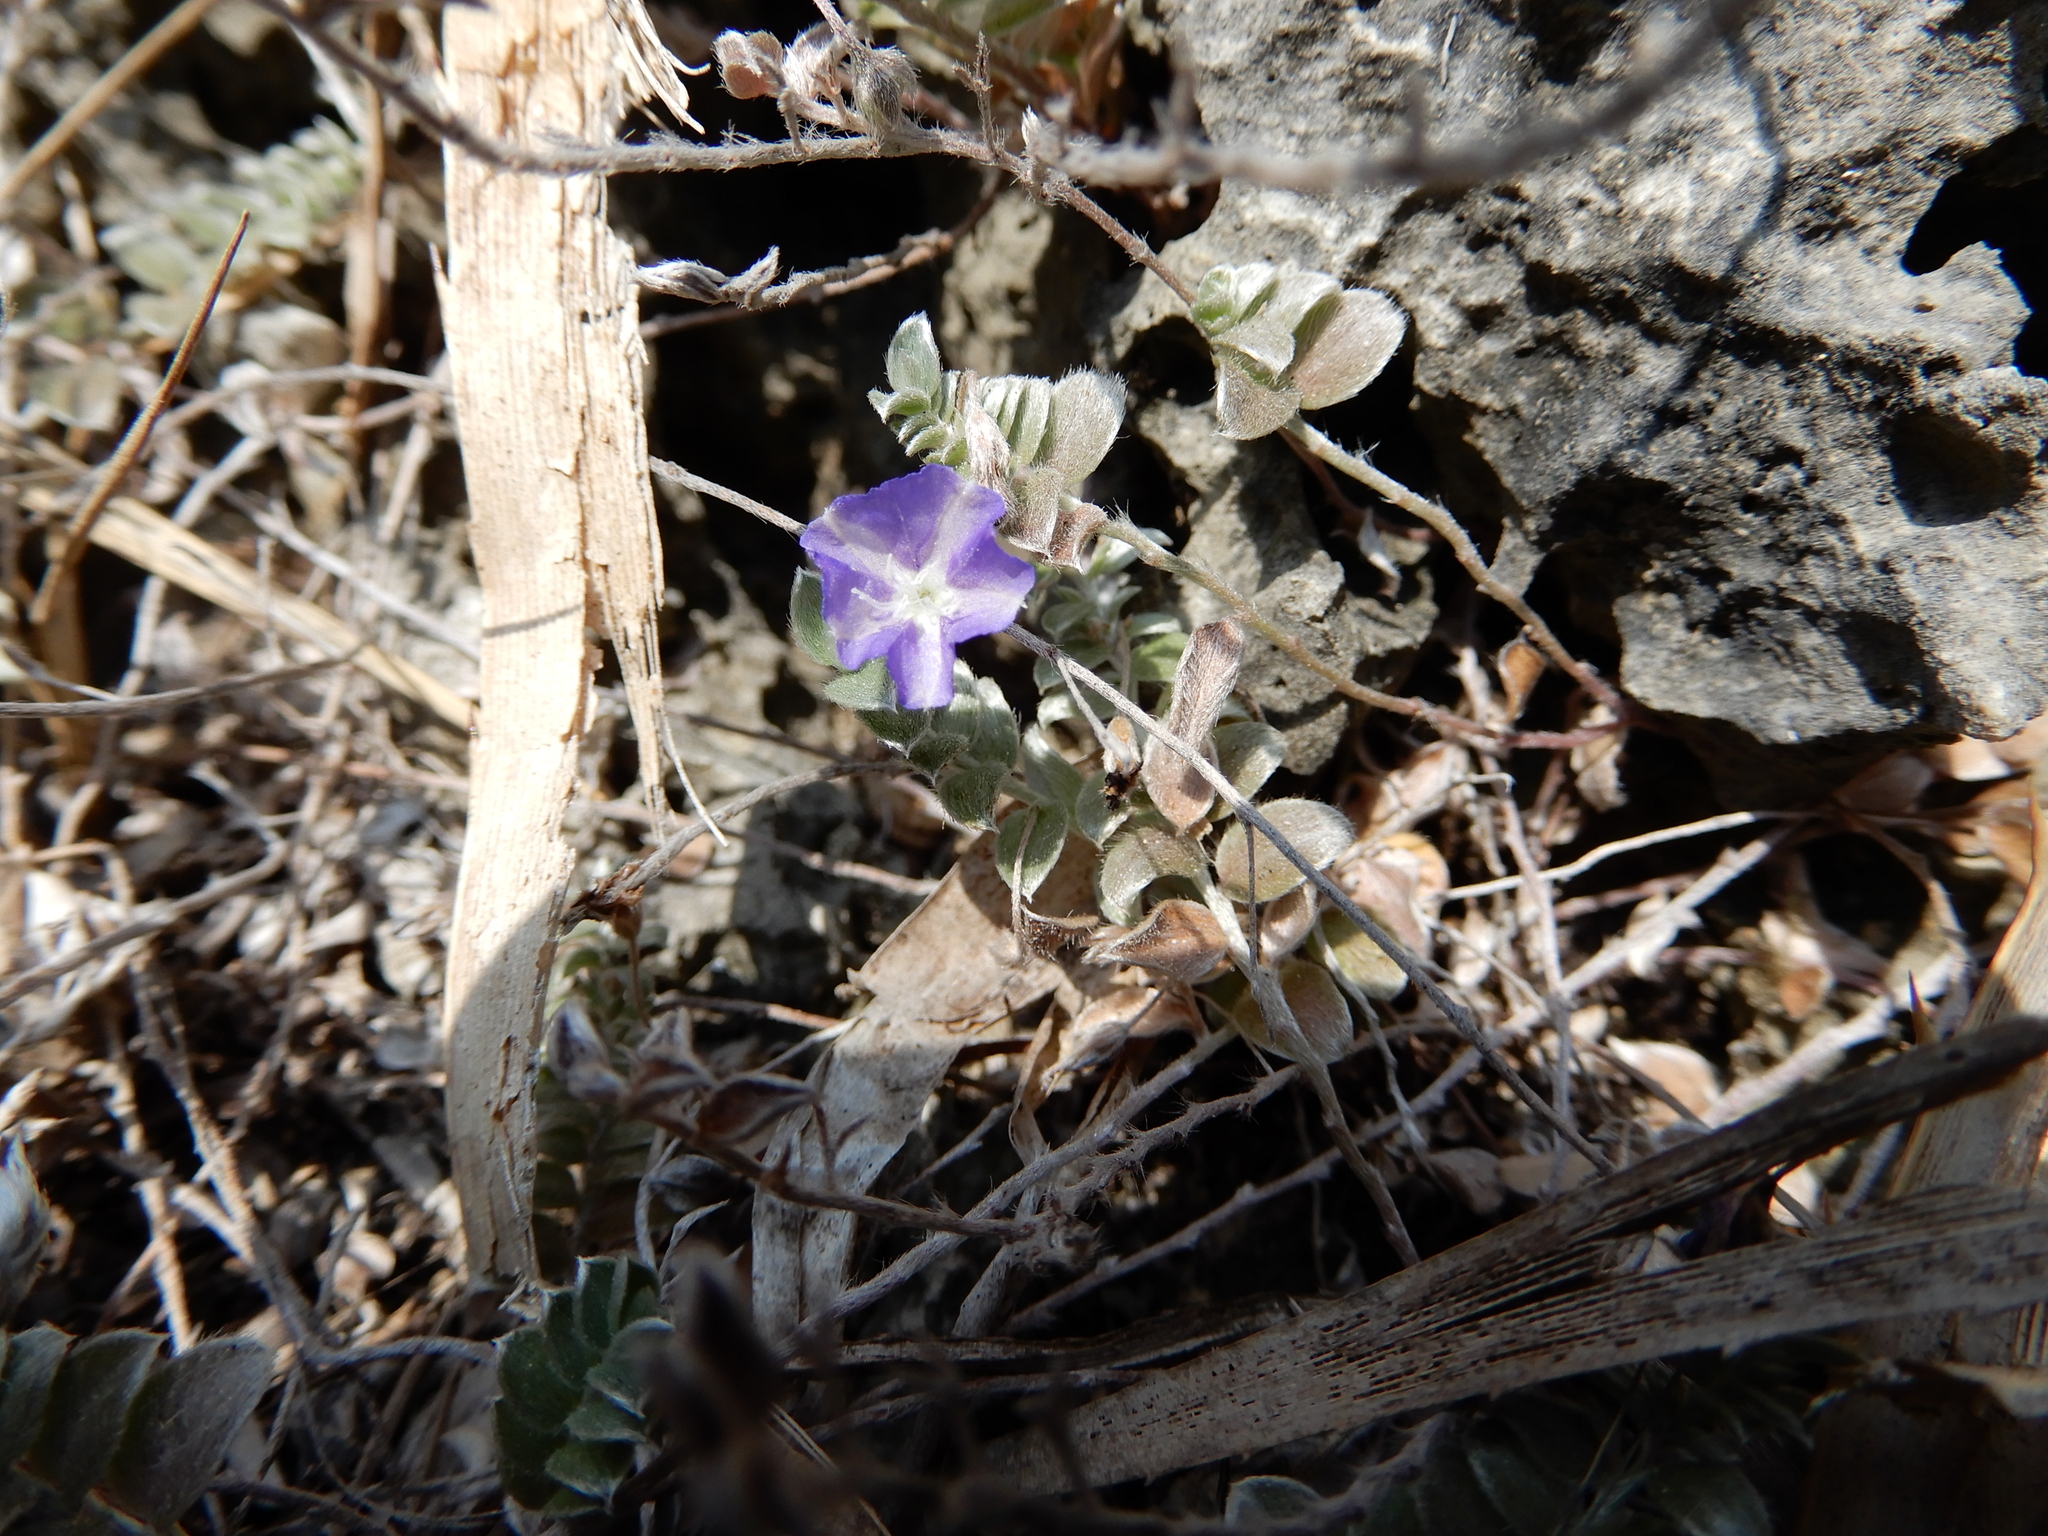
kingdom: Plantae
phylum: Tracheophyta
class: Magnoliopsida
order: Solanales
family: Convolvulaceae
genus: Evolvulus
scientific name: Evolvulus alsinoides
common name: Slender dwarf morning-glory
